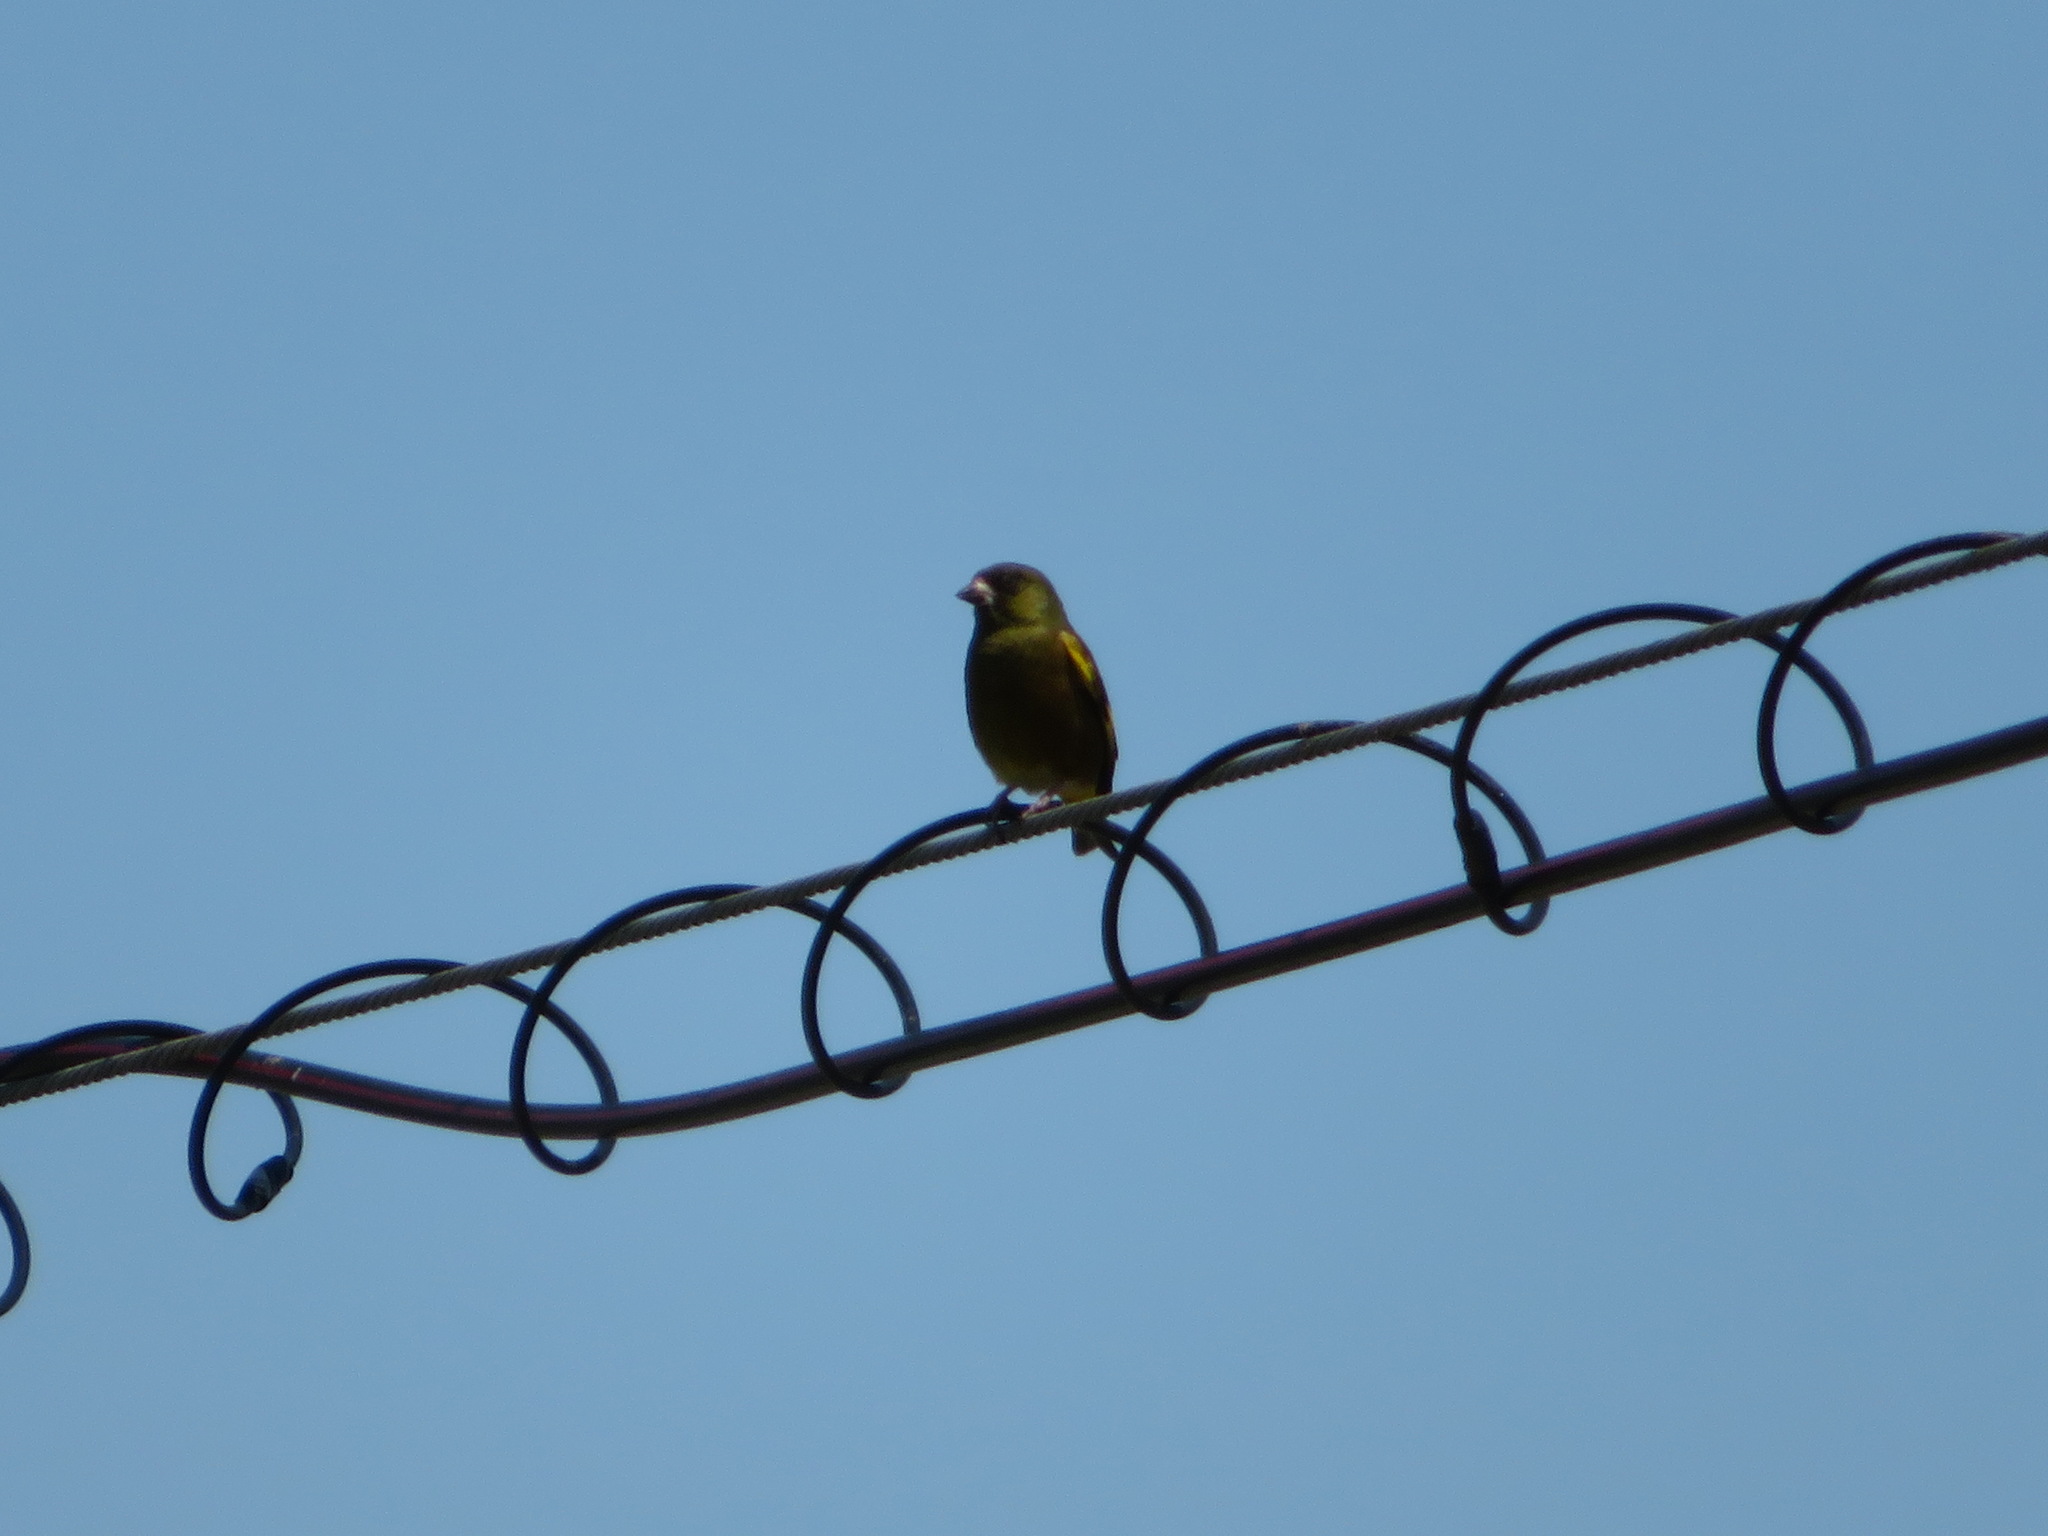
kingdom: Plantae
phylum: Tracheophyta
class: Liliopsida
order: Poales
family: Poaceae
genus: Chloris
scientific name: Chloris sinica
